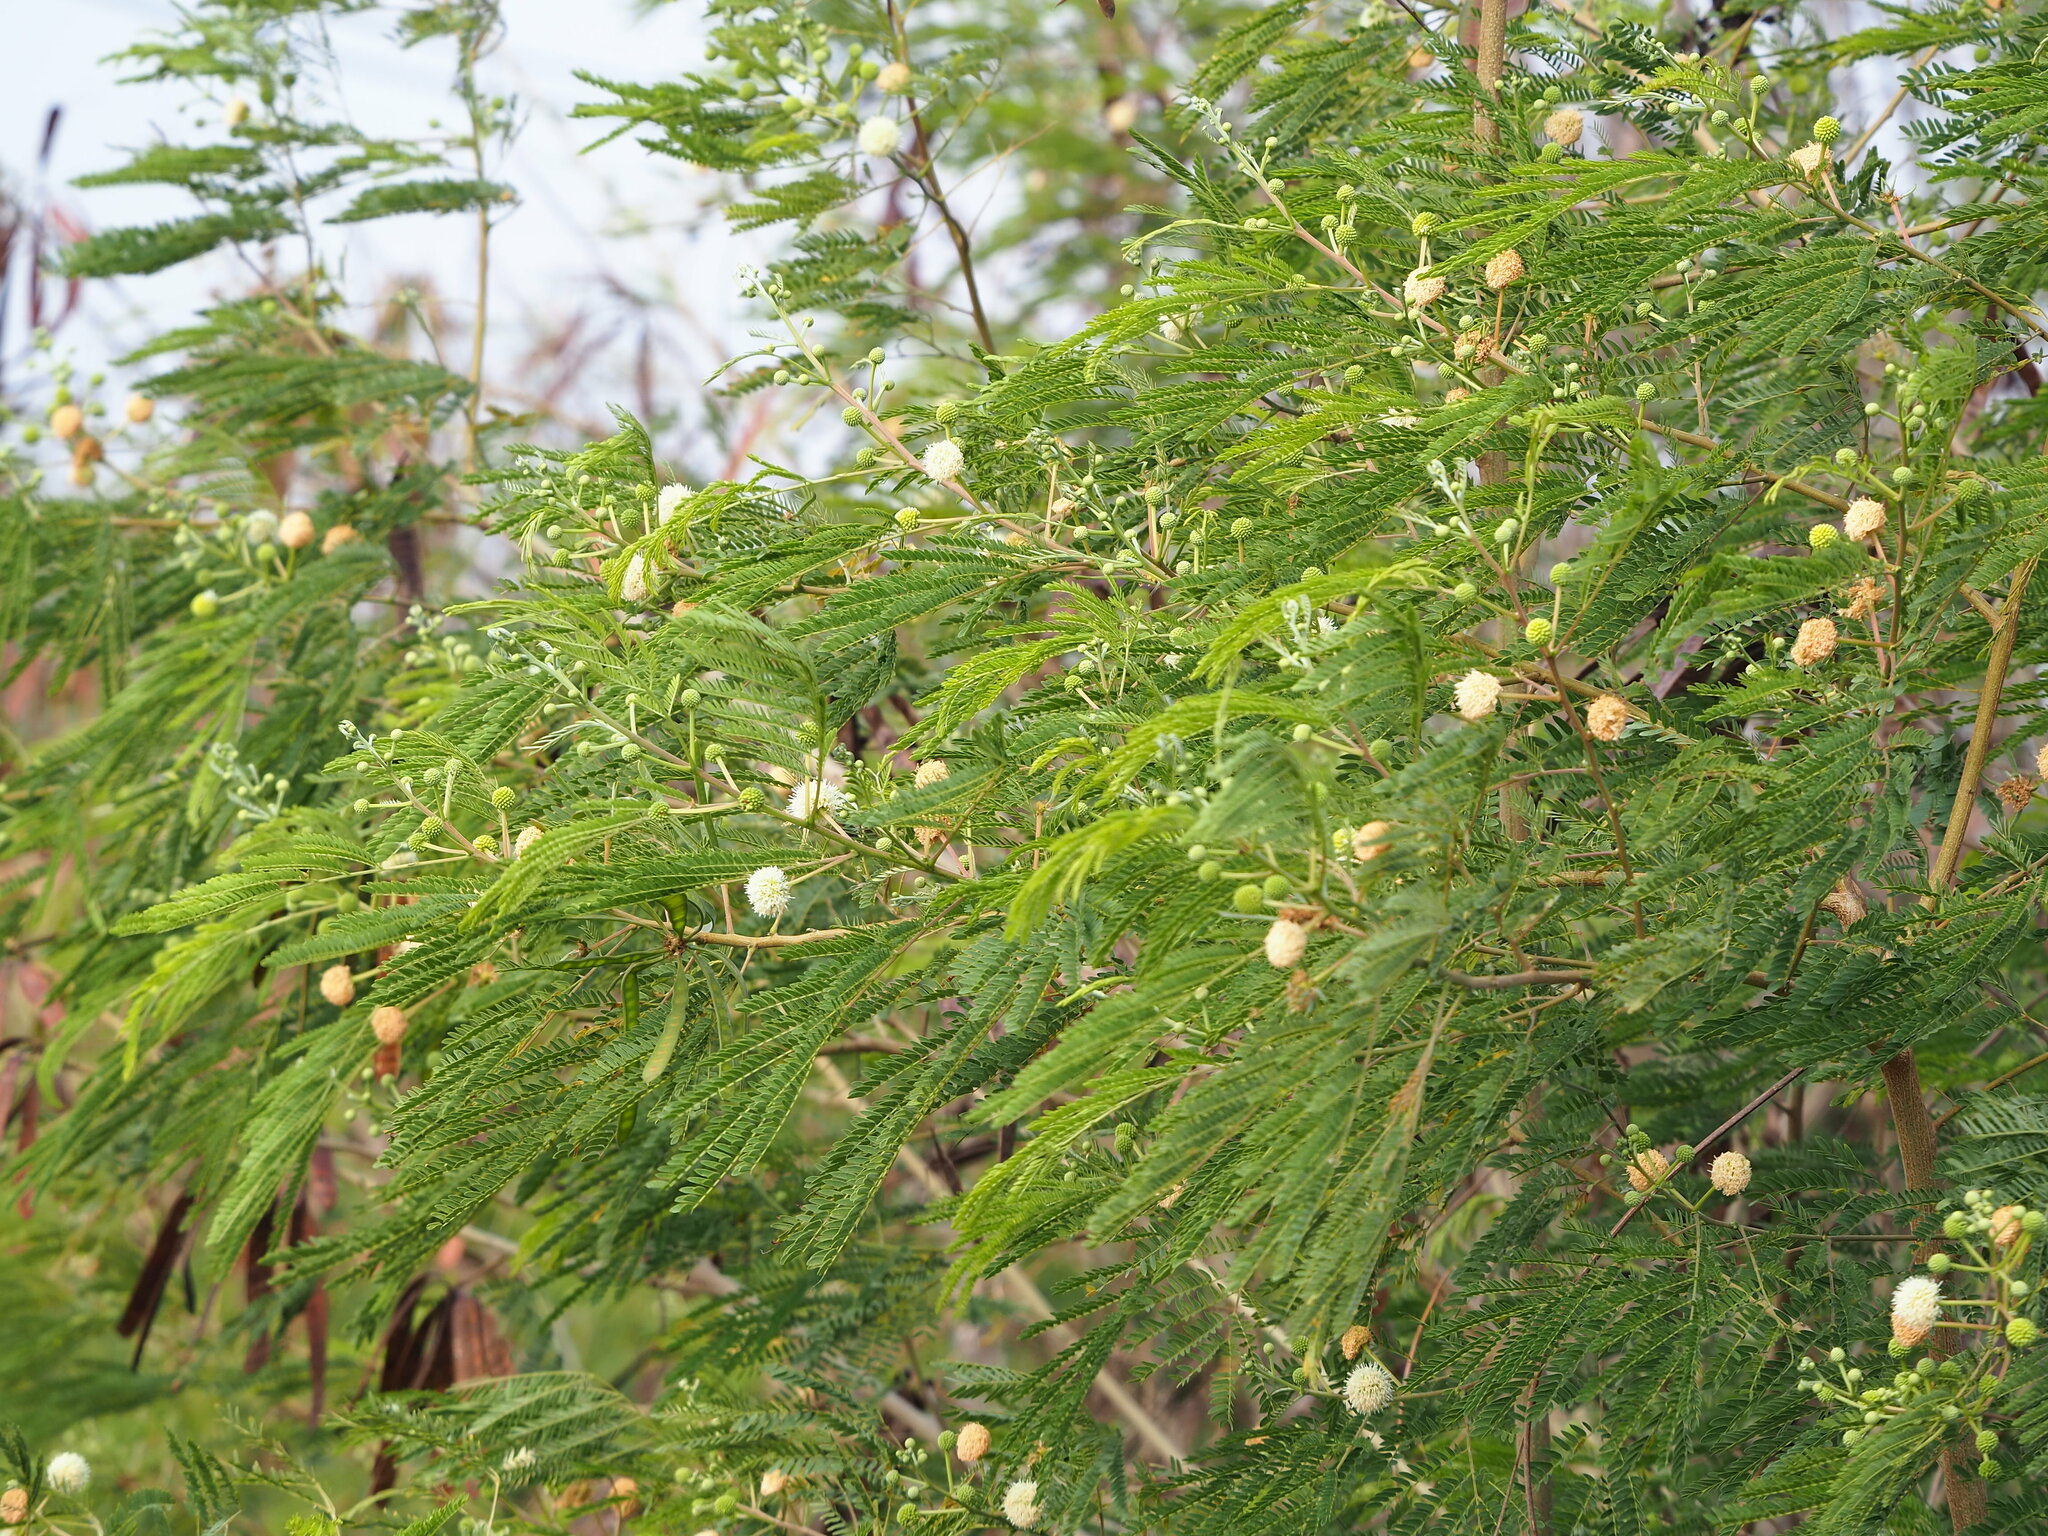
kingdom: Plantae
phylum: Tracheophyta
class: Magnoliopsida
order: Fabales
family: Fabaceae
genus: Leucaena
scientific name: Leucaena leucocephala
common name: White leadtree
